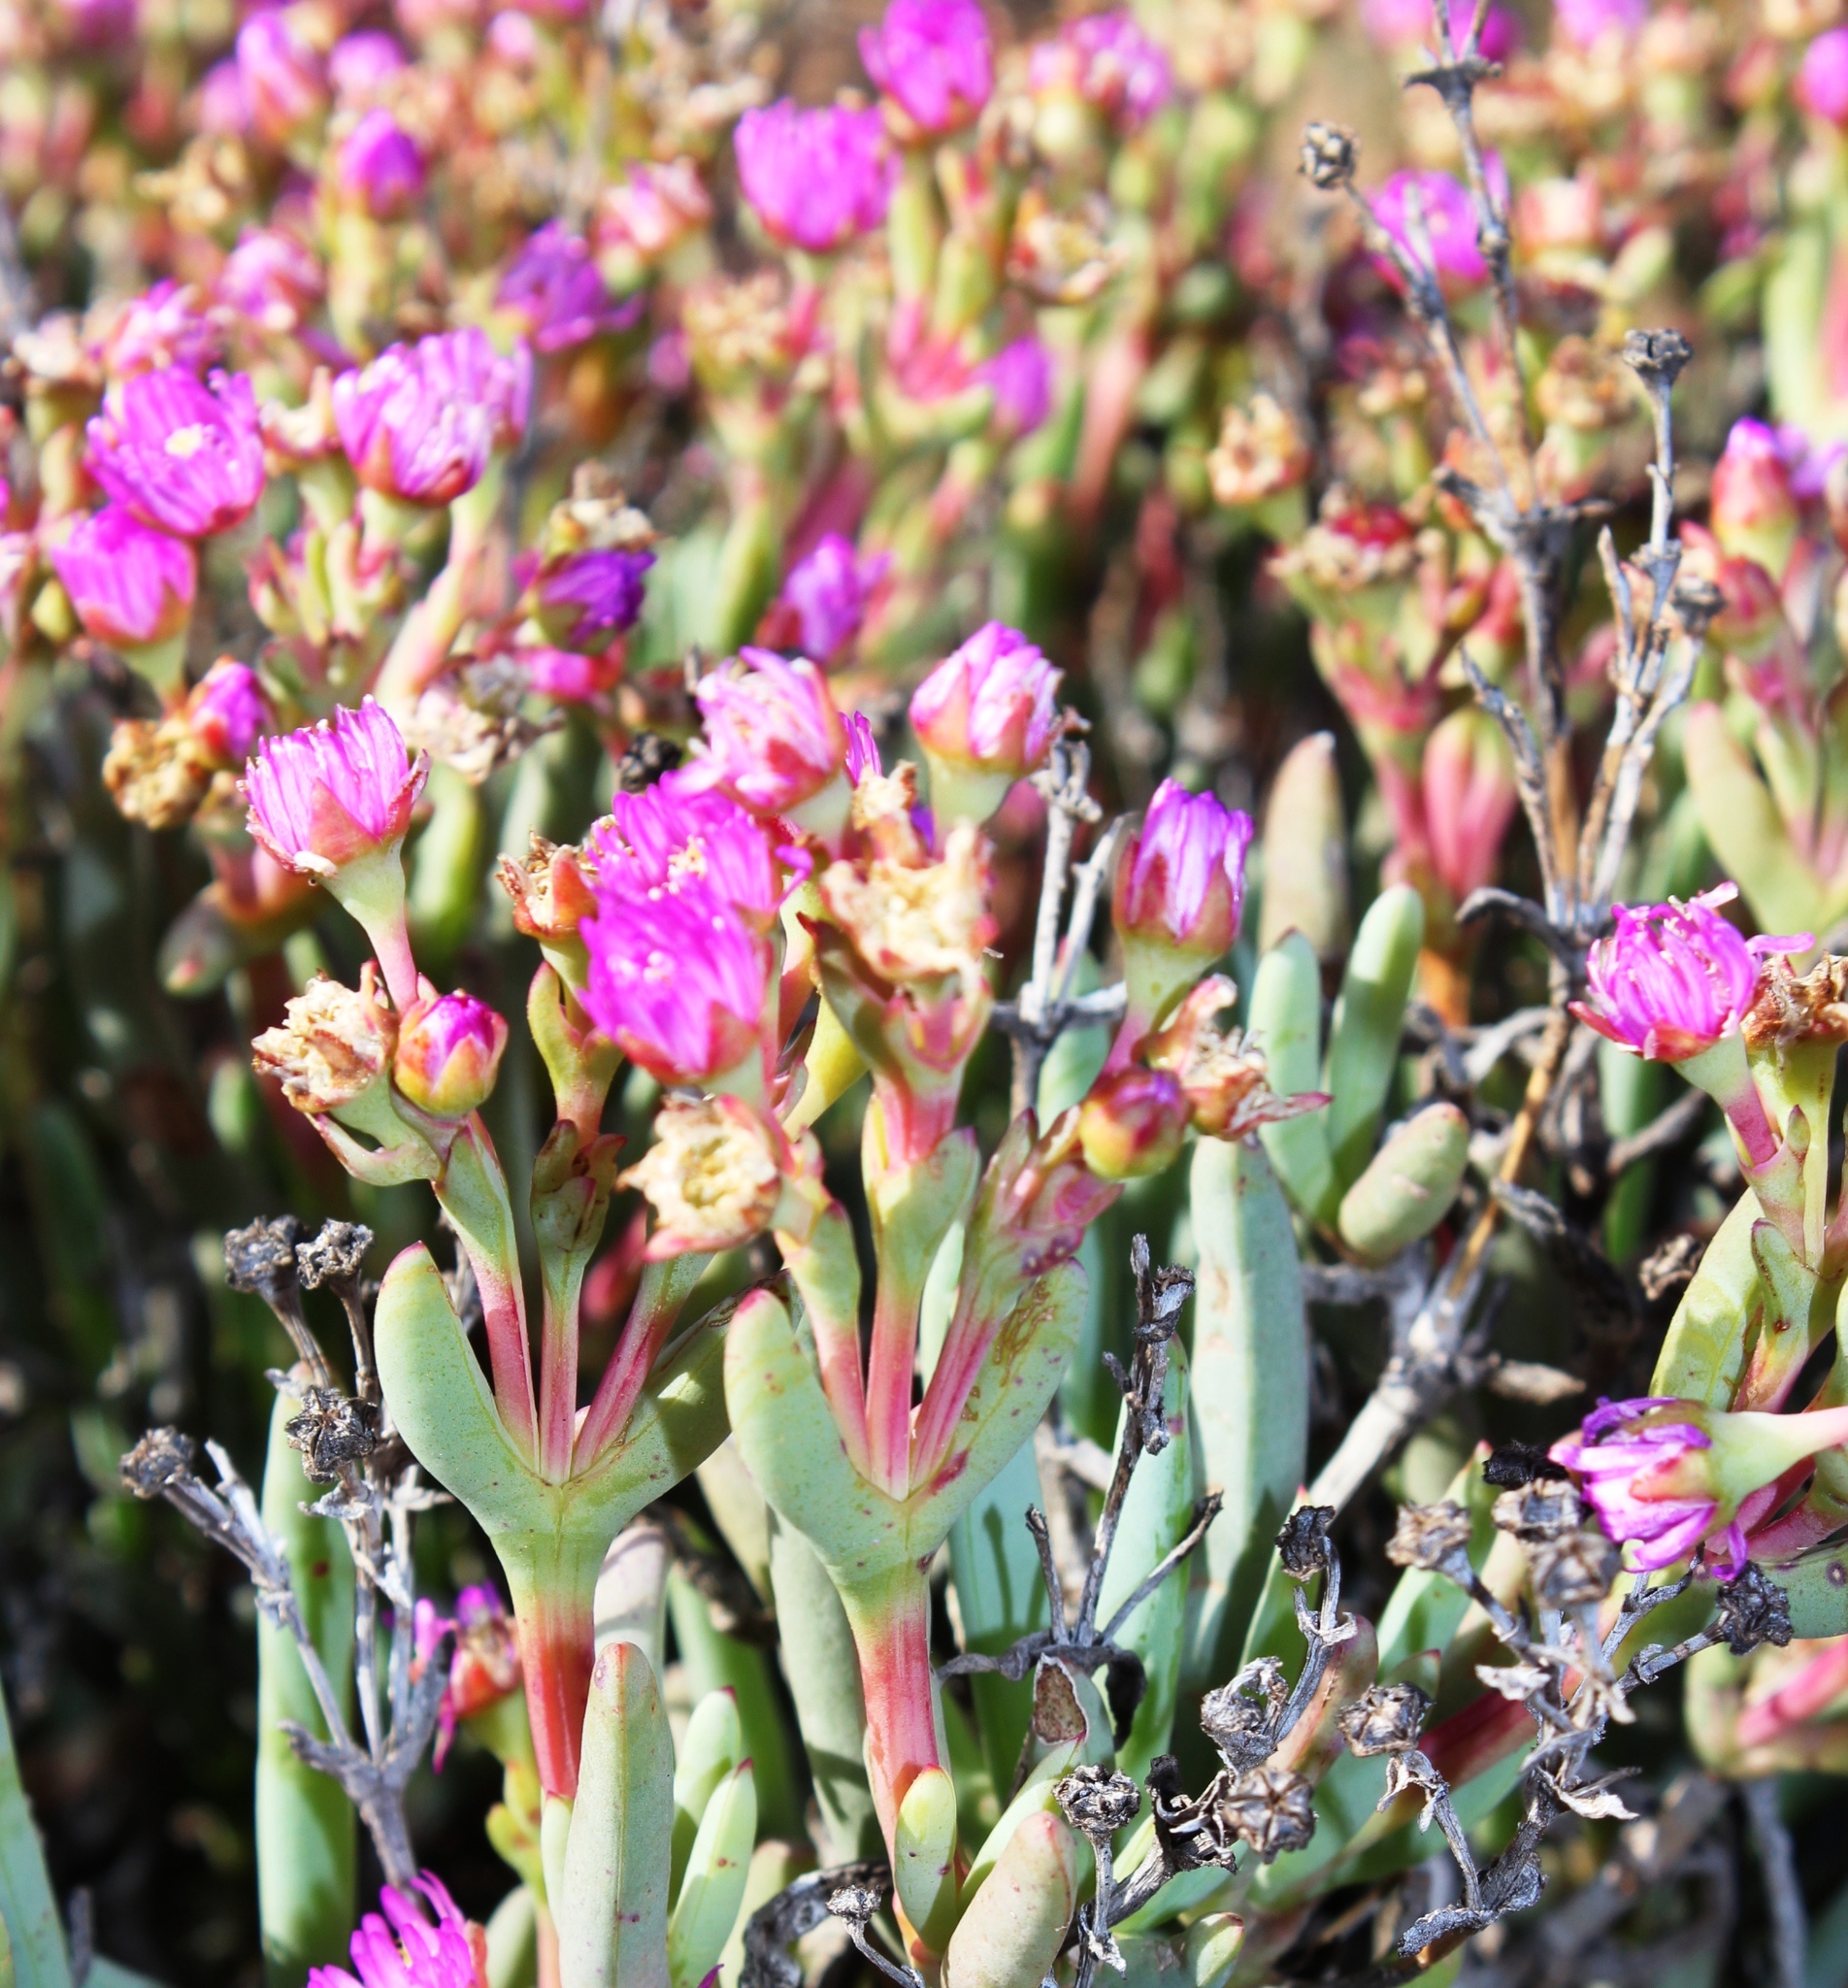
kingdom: Plantae
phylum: Tracheophyta
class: Magnoliopsida
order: Caryophyllales
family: Aizoaceae
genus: Ruschia
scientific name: Ruschia tribracteata
